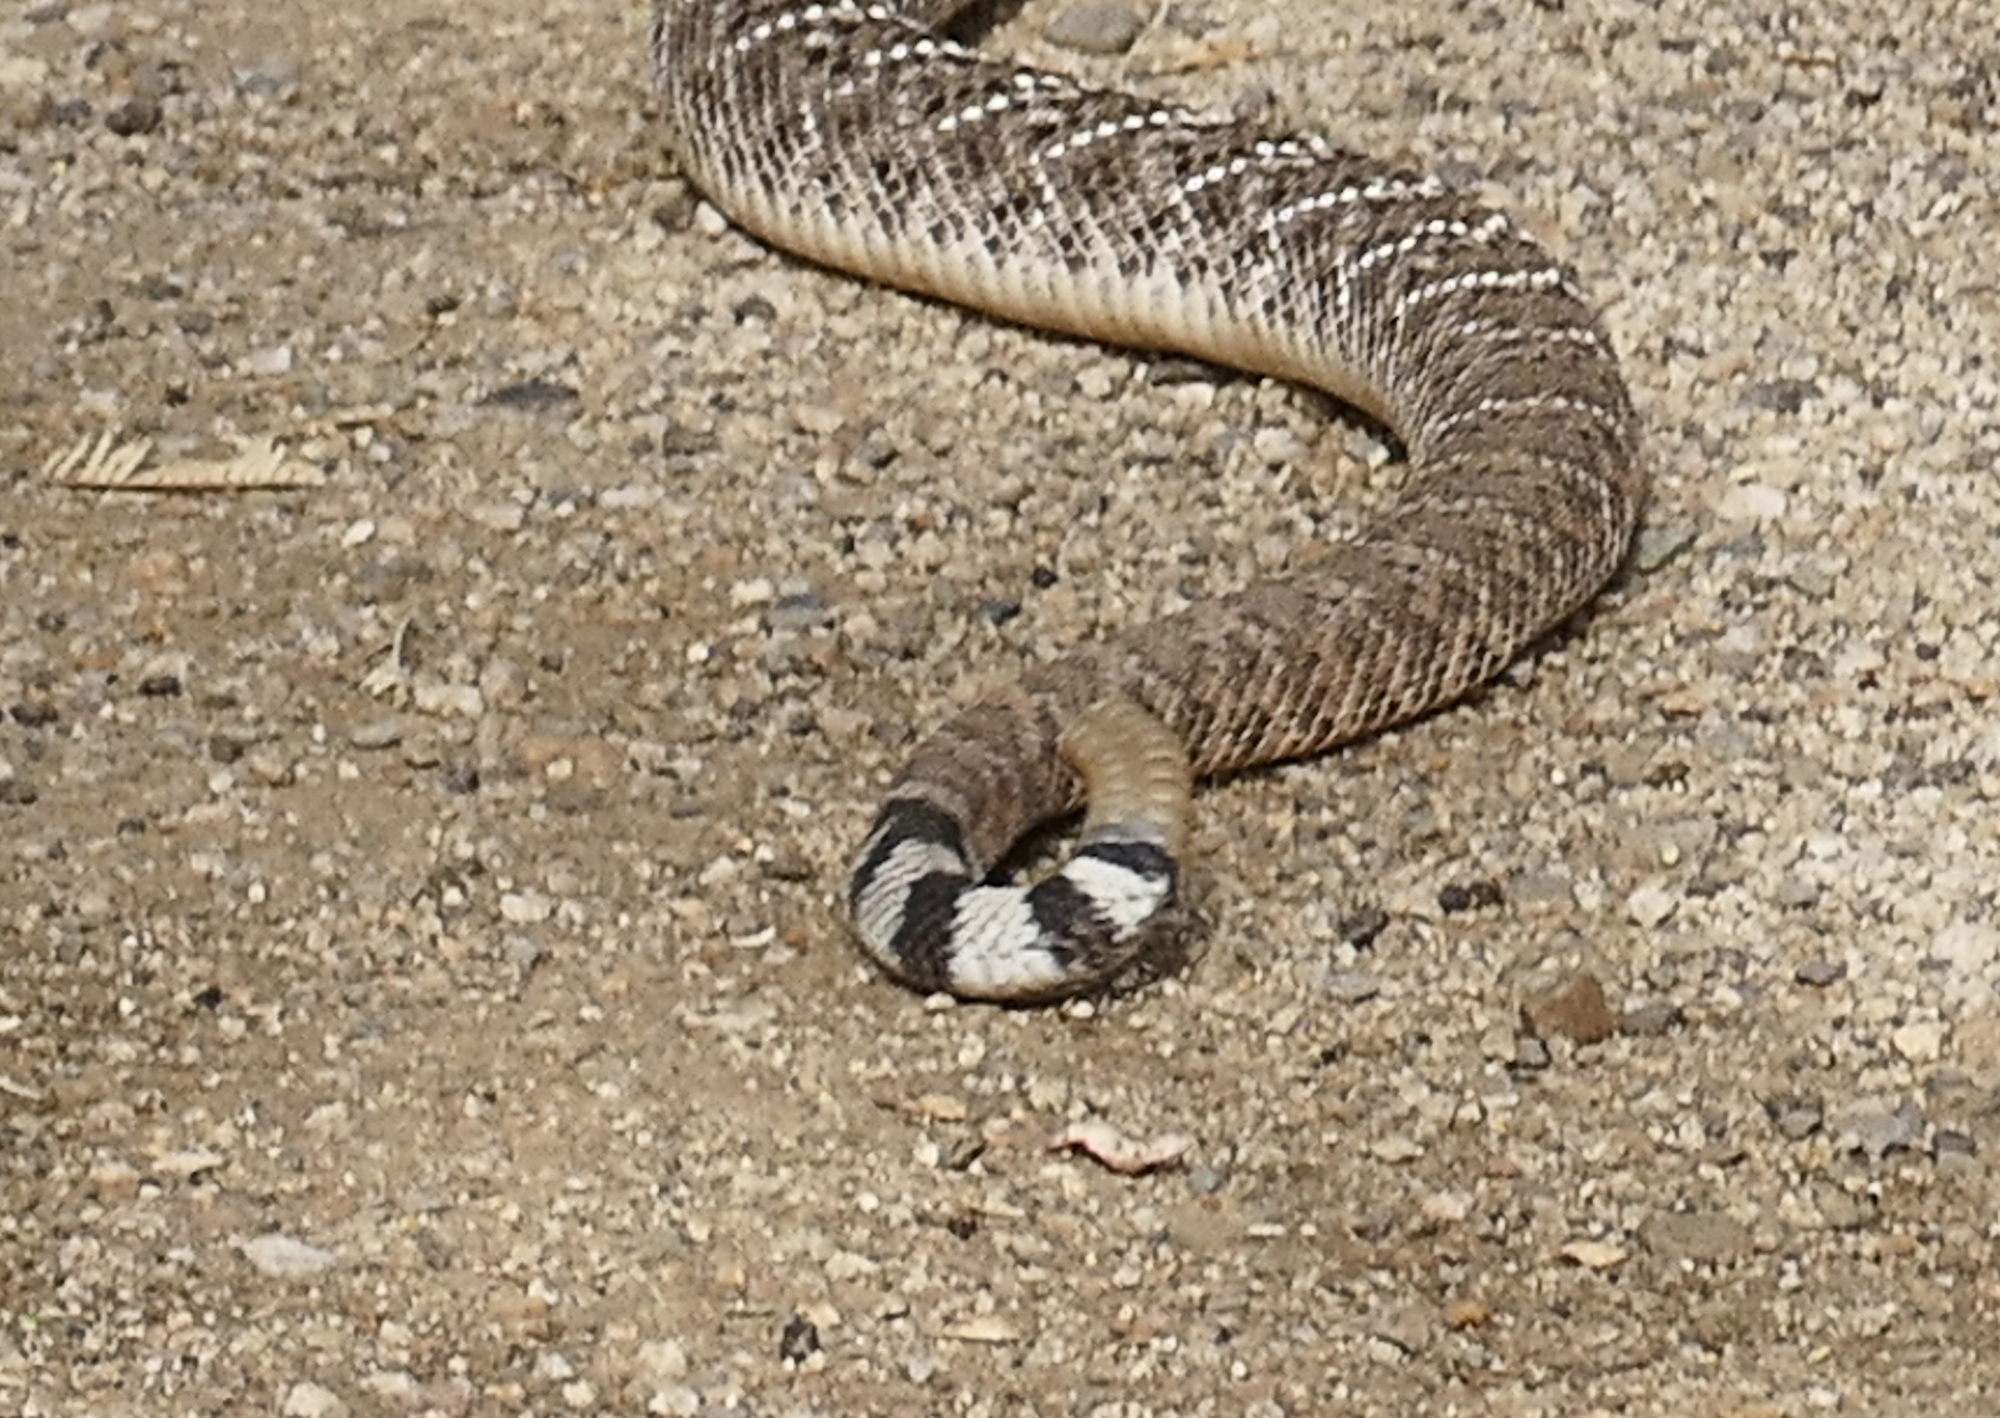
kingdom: Animalia
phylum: Chordata
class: Squamata
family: Viperidae
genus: Crotalus
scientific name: Crotalus atrox
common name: Western diamond-backed rattlesnake
